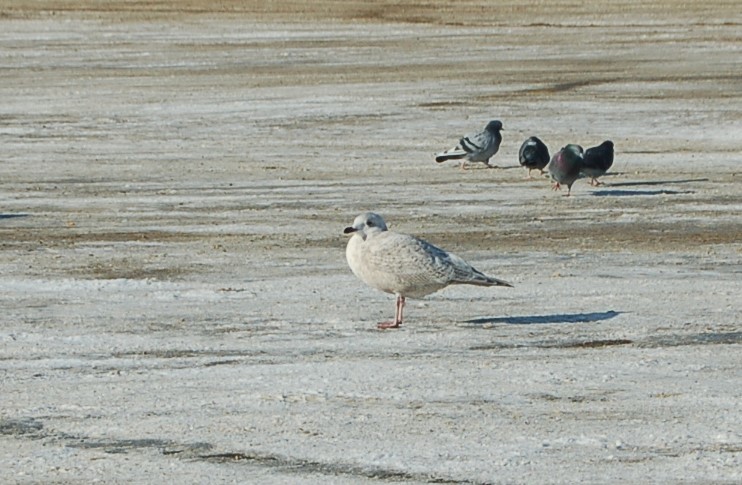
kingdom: Animalia
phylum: Chordata
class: Aves
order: Charadriiformes
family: Laridae
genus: Larus
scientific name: Larus glaucoides
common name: Iceland gull
